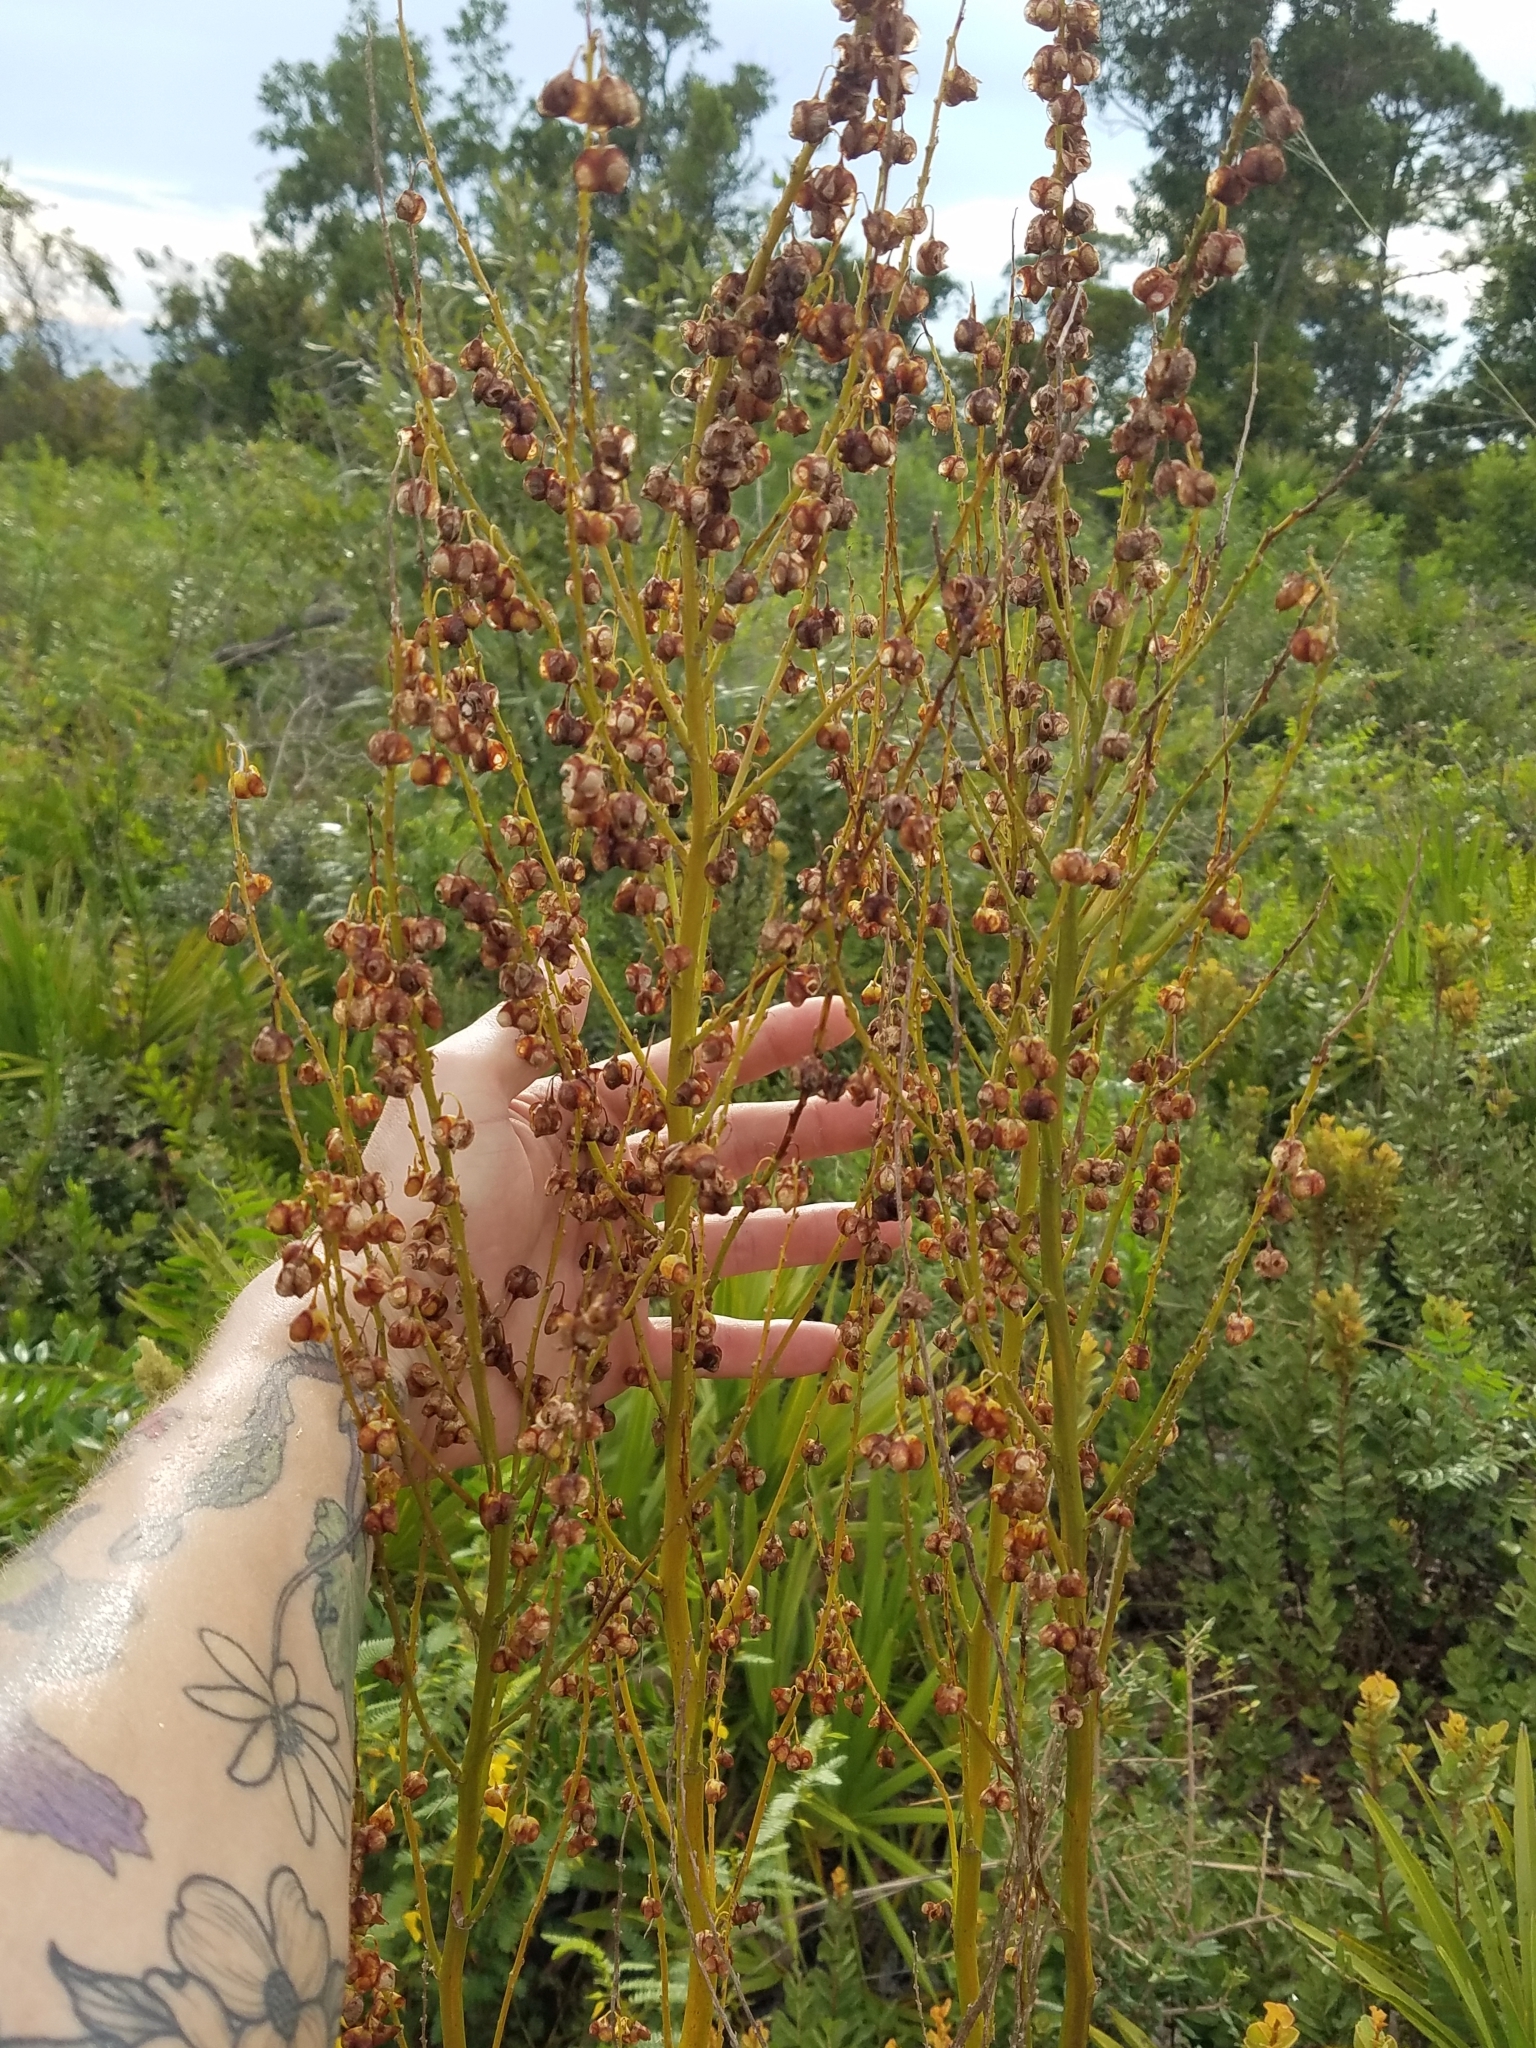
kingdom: Plantae
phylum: Tracheophyta
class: Liliopsida
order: Asparagales
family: Asparagaceae
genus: Nolina
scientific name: Nolina brittoniana
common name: Britton's bear-grass
